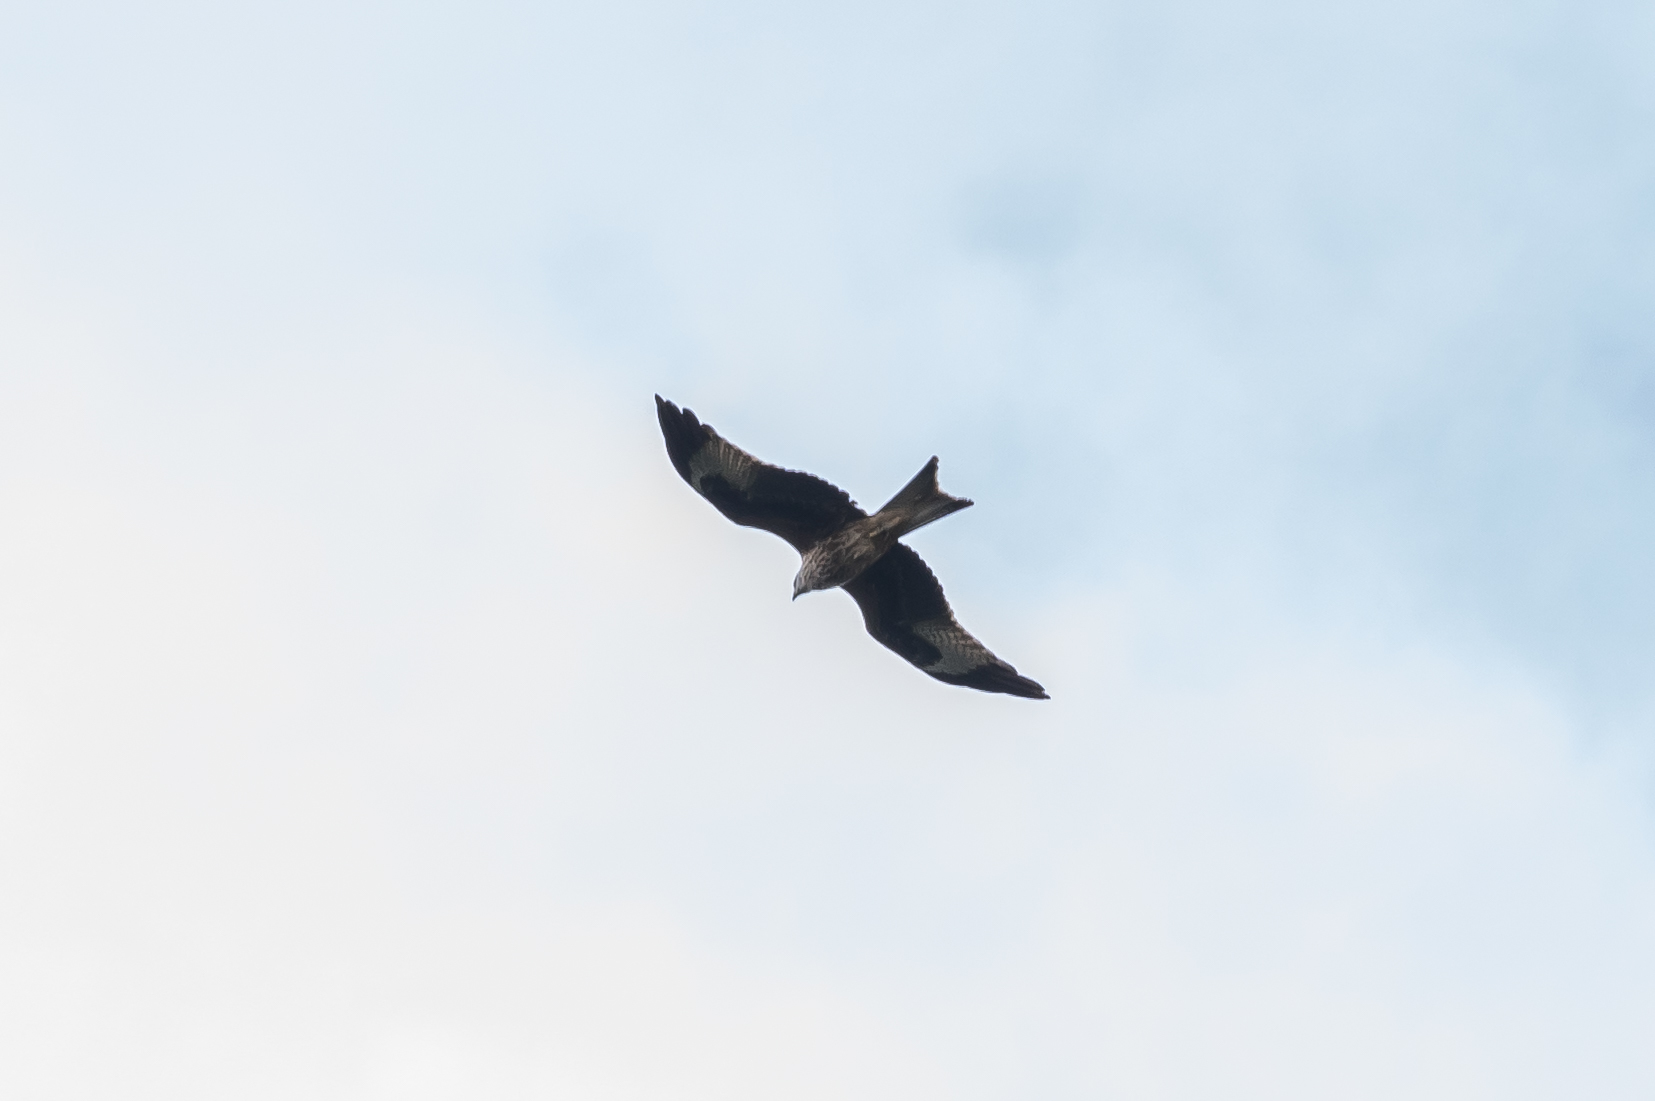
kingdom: Animalia
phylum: Chordata
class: Aves
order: Accipitriformes
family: Accipitridae
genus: Milvus
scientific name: Milvus milvus
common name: Red kite
